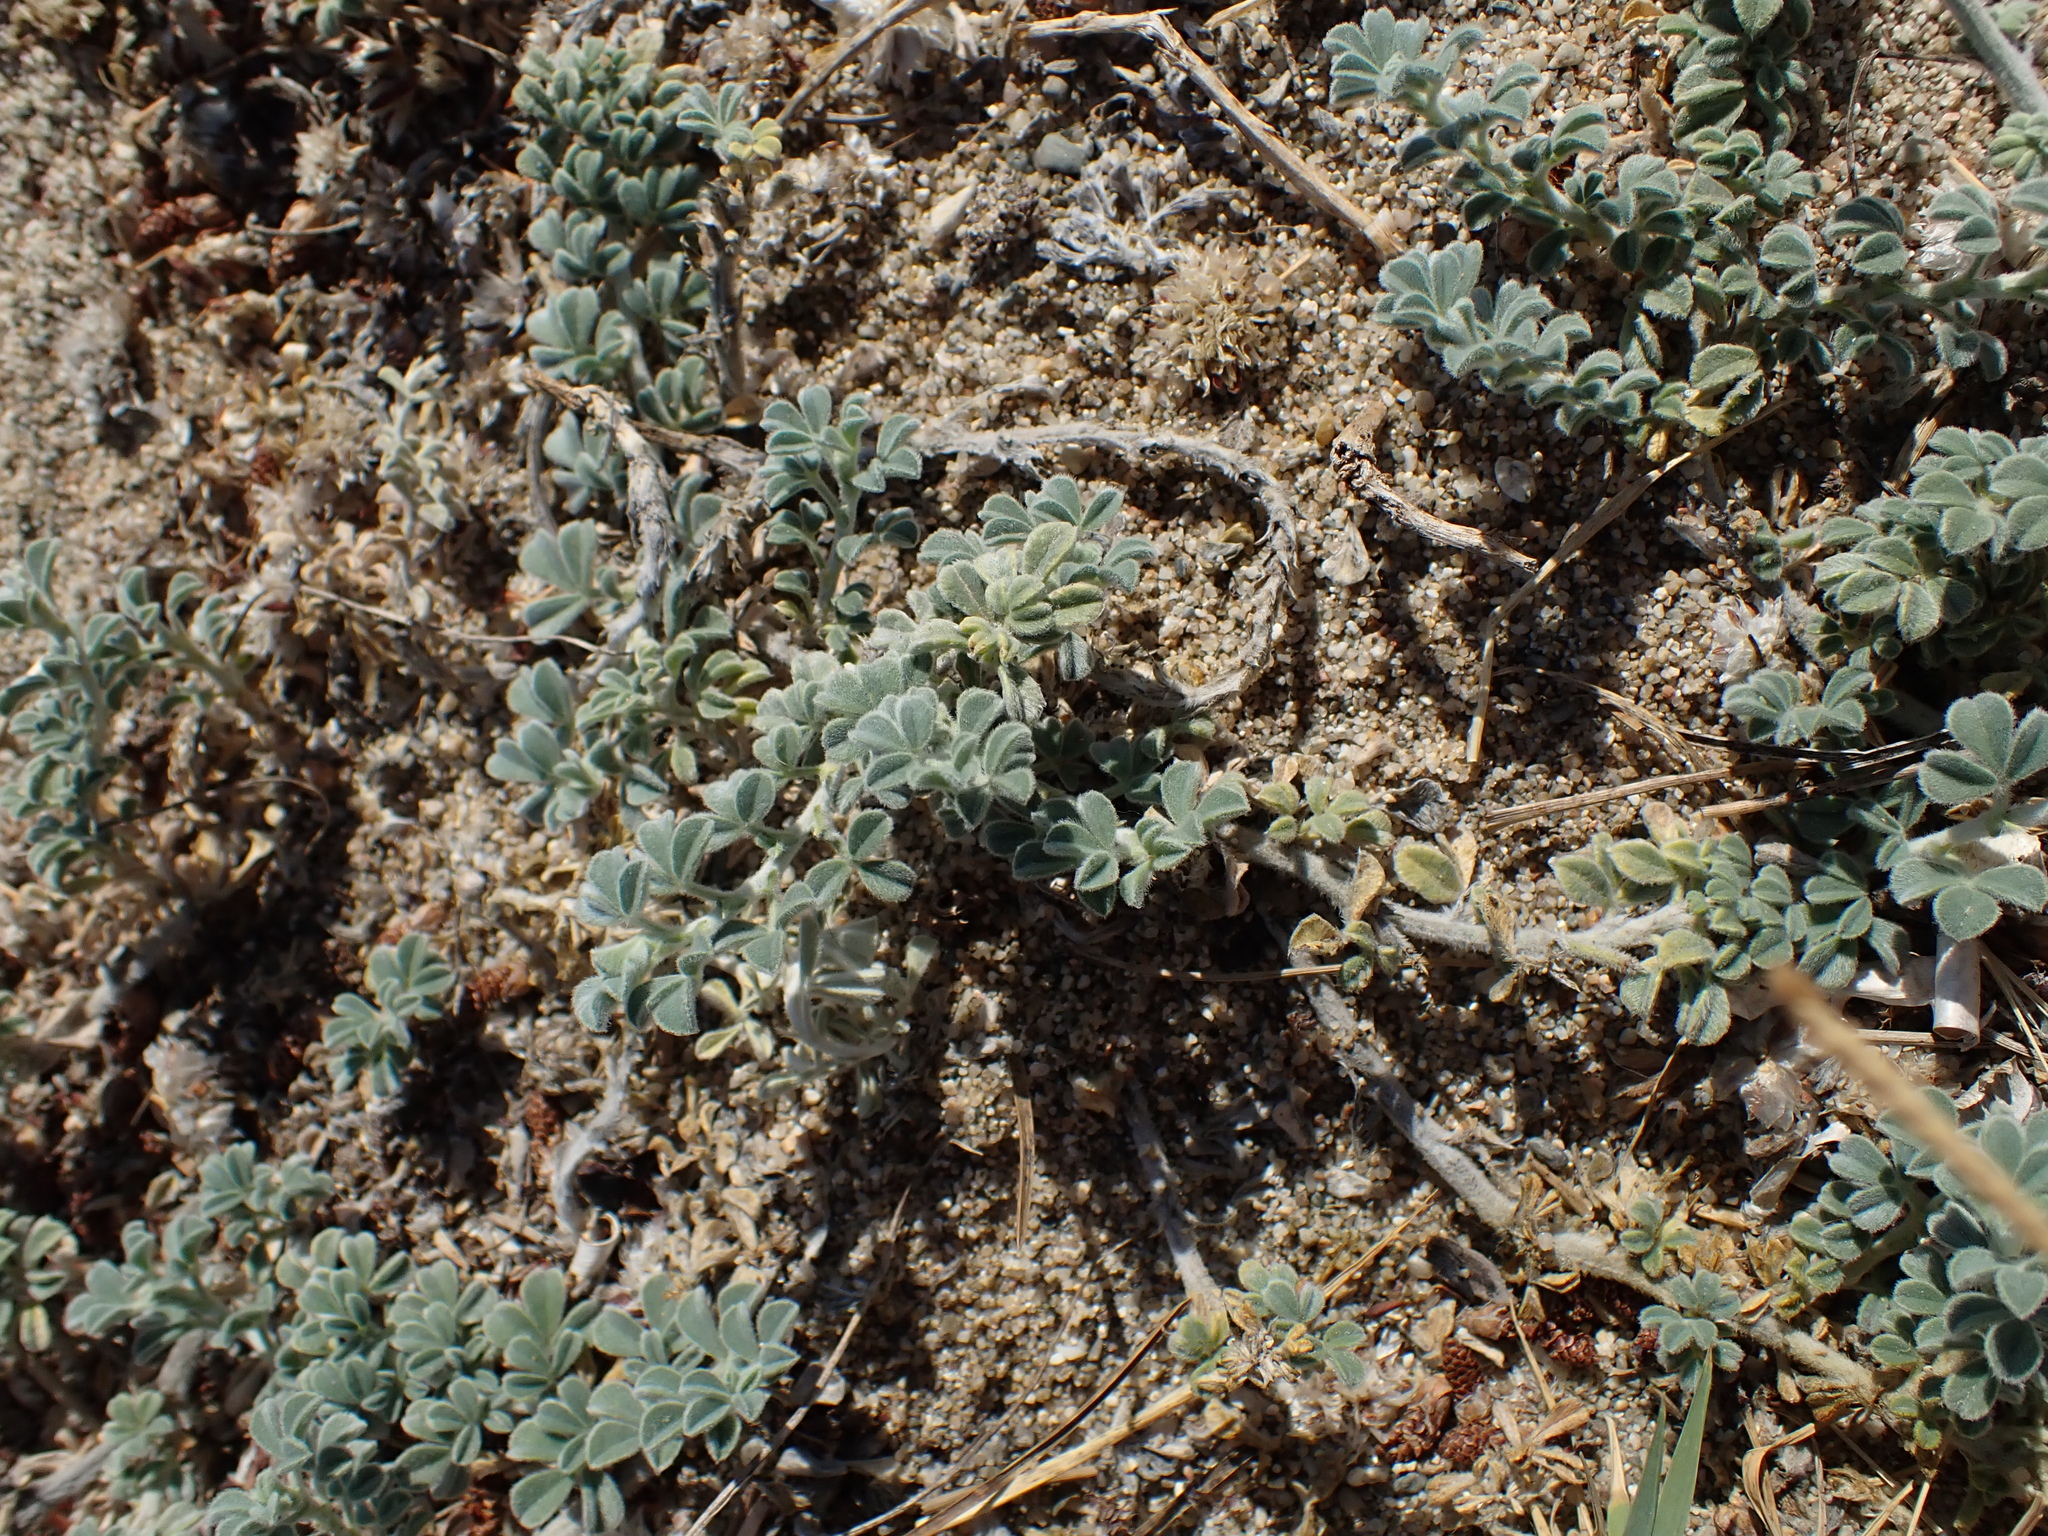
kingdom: Plantae
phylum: Tracheophyta
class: Magnoliopsida
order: Fabales
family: Fabaceae
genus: Medicago
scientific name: Medicago marina
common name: Sea medick
